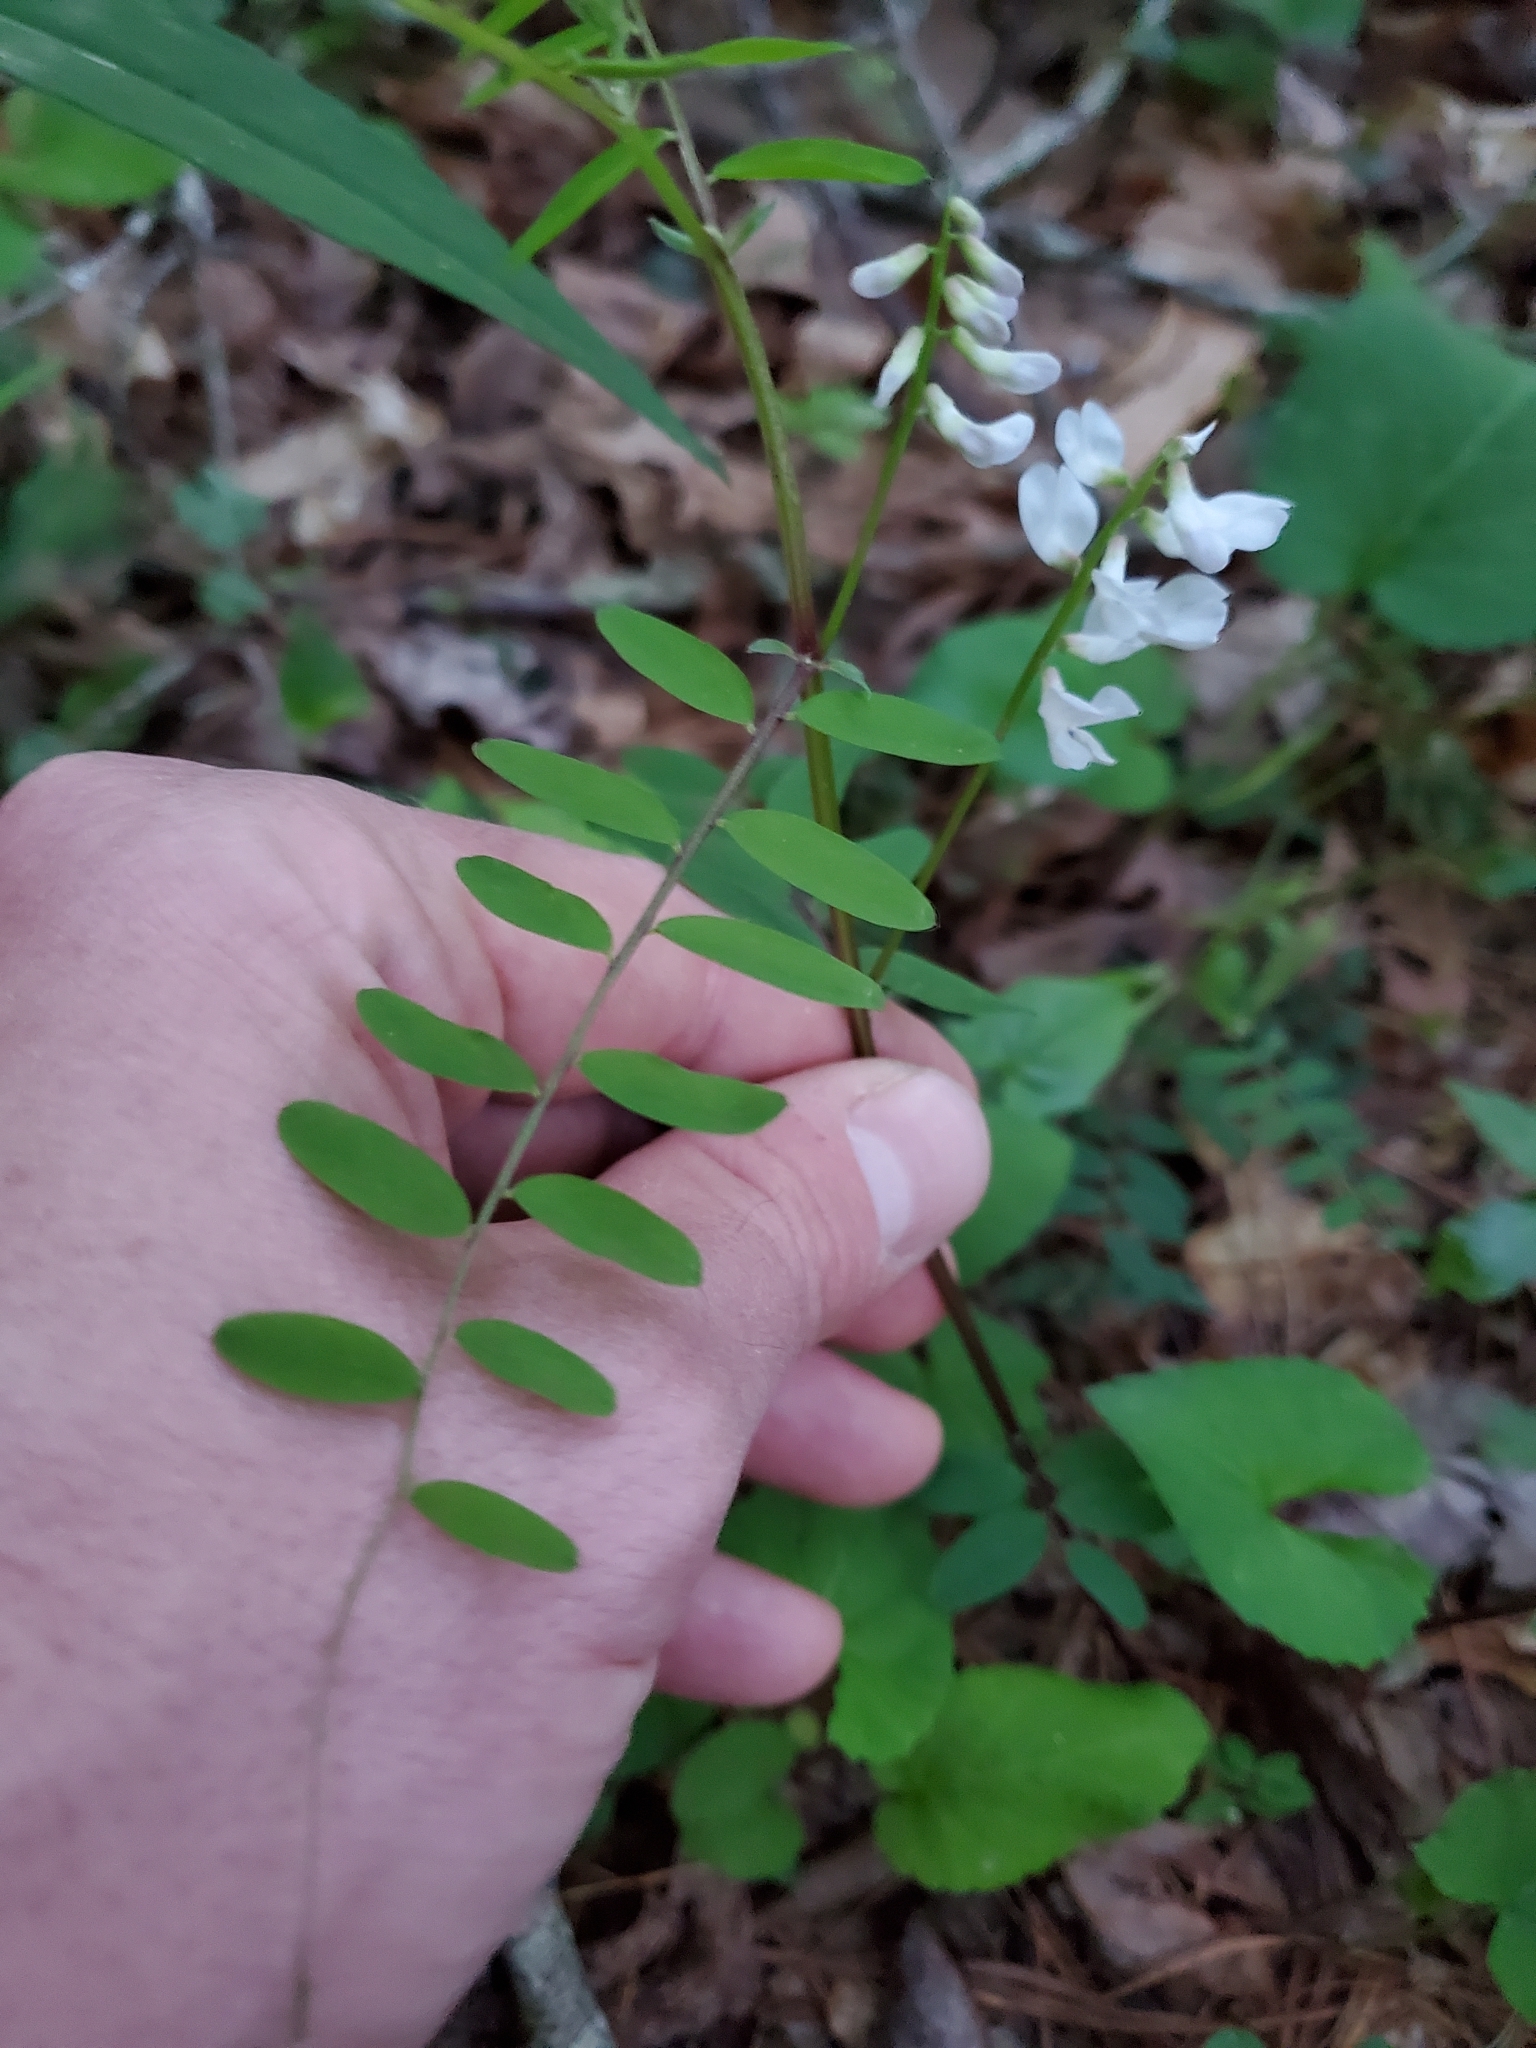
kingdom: Plantae
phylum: Tracheophyta
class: Magnoliopsida
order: Fabales
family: Fabaceae
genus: Vicia
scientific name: Vicia caroliniana
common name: Carolina vetch
